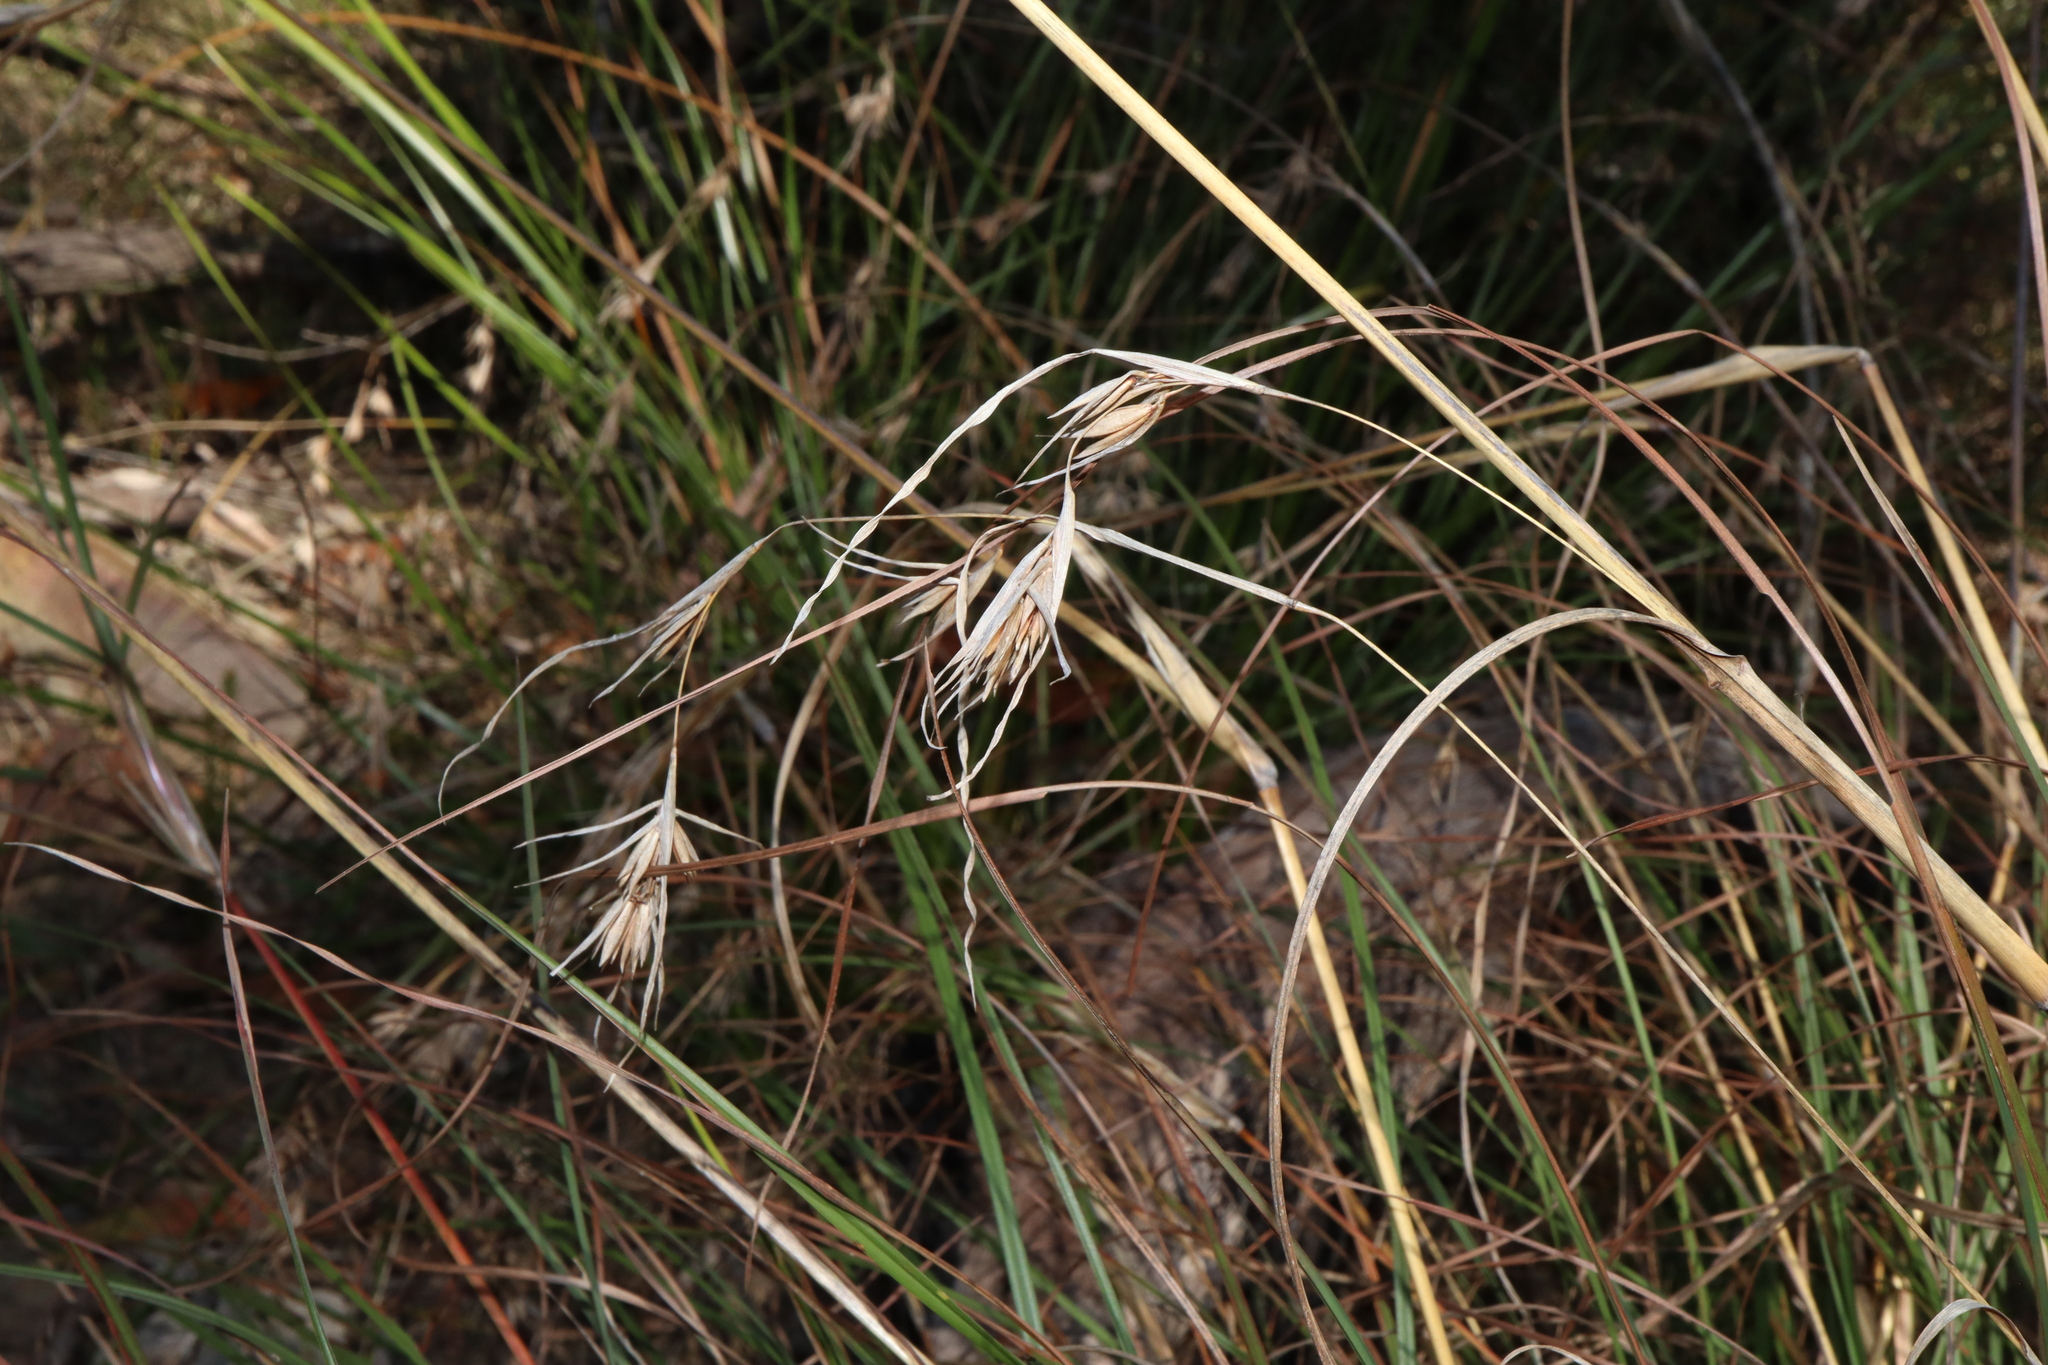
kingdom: Plantae
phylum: Tracheophyta
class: Liliopsida
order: Poales
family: Poaceae
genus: Themeda
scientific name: Themeda triandra
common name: Kangaroo grass
